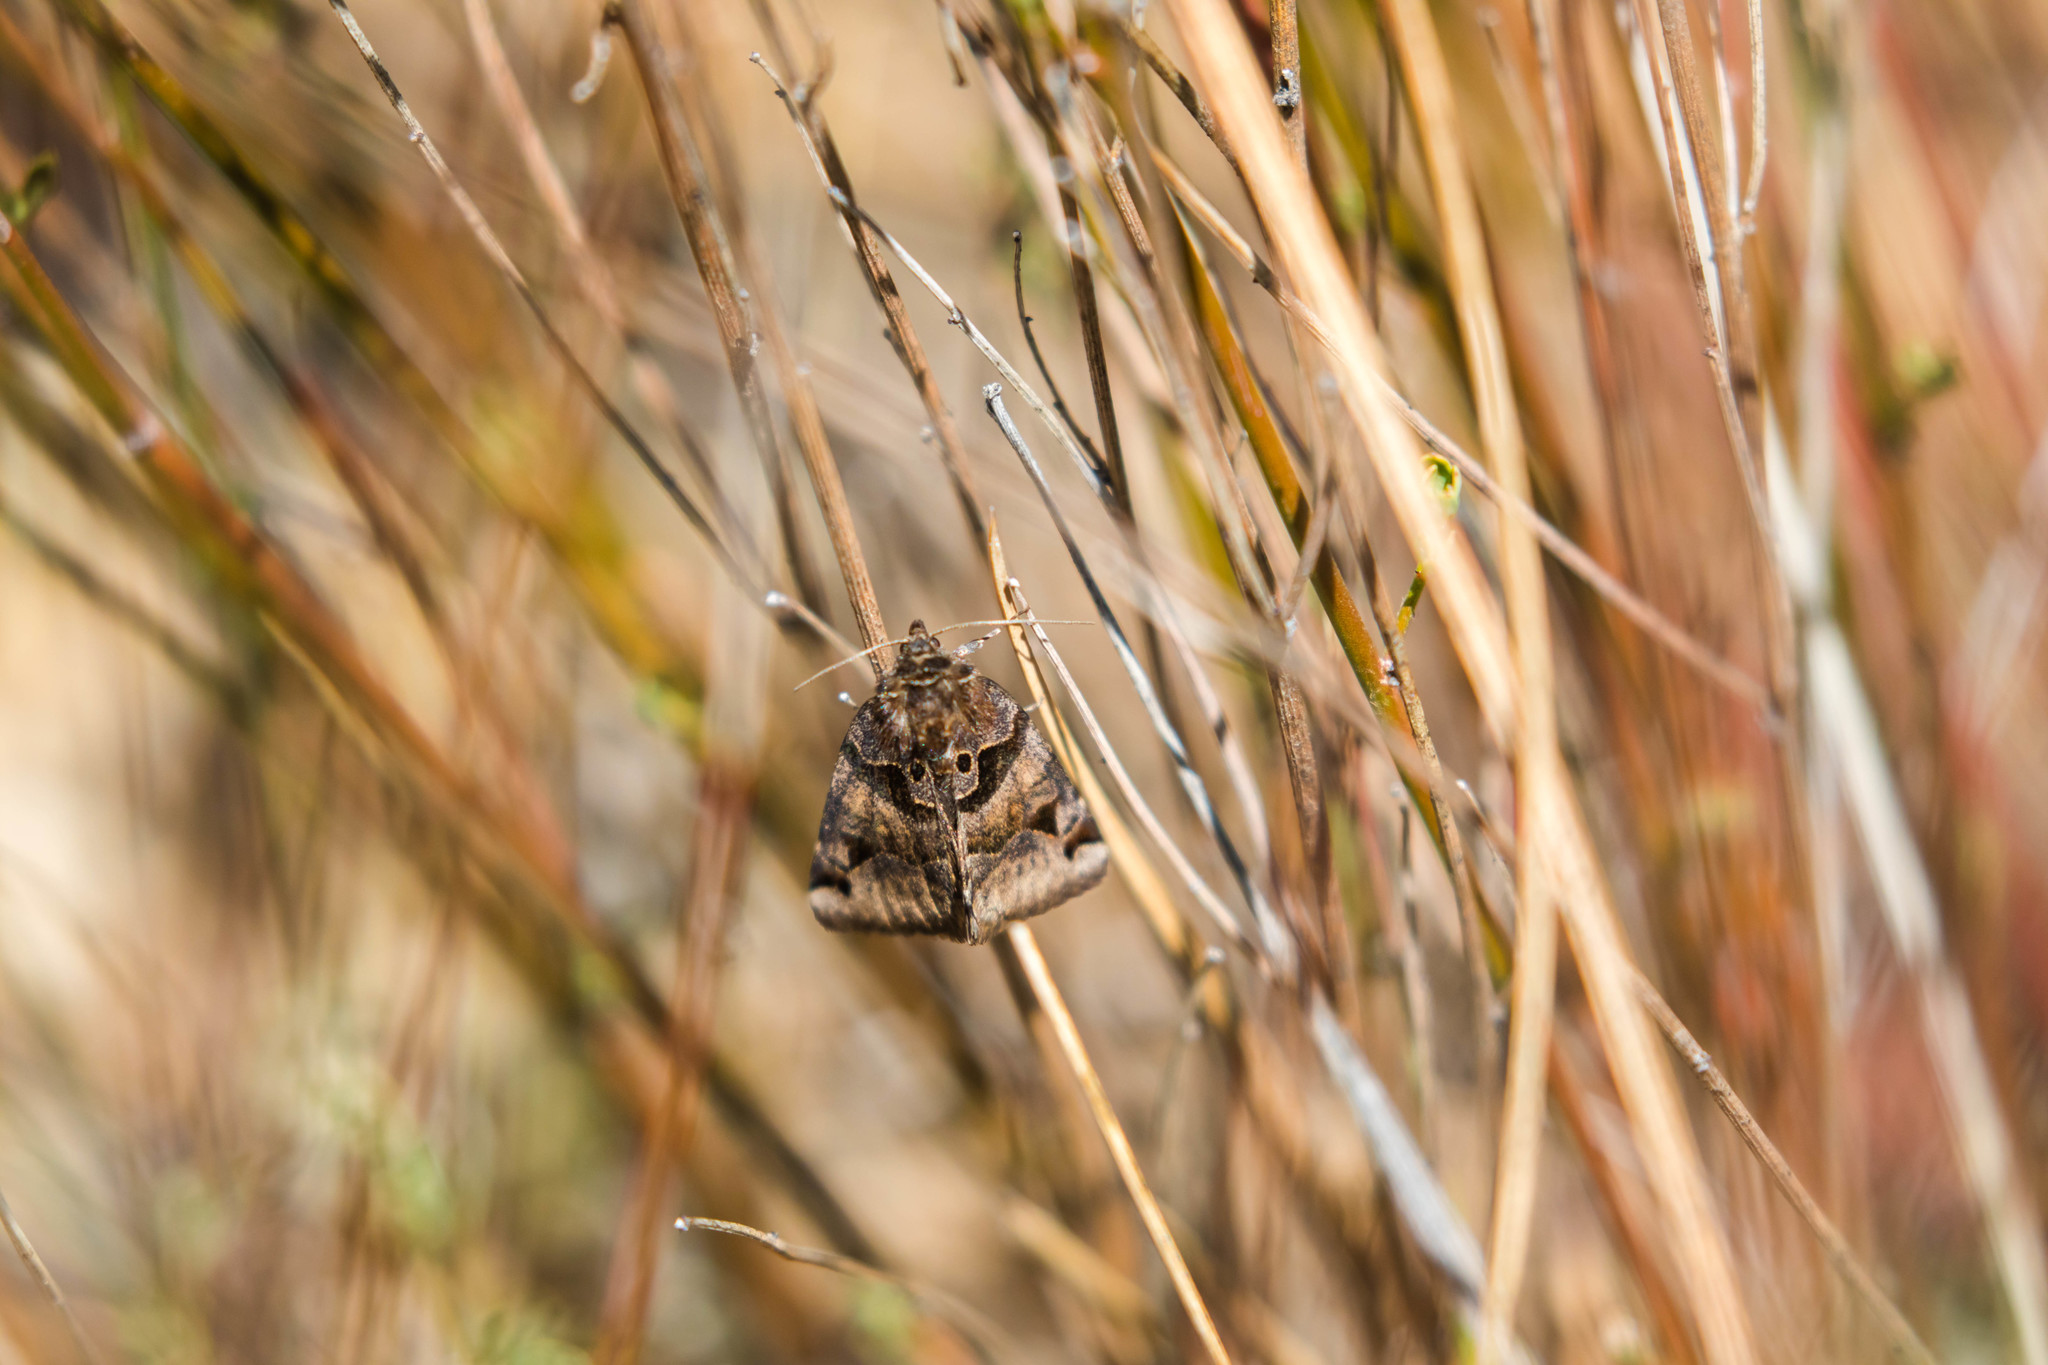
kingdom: Animalia
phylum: Arthropoda
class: Insecta
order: Lepidoptera
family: Erebidae
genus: Euclidia
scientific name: Euclidia ardita
